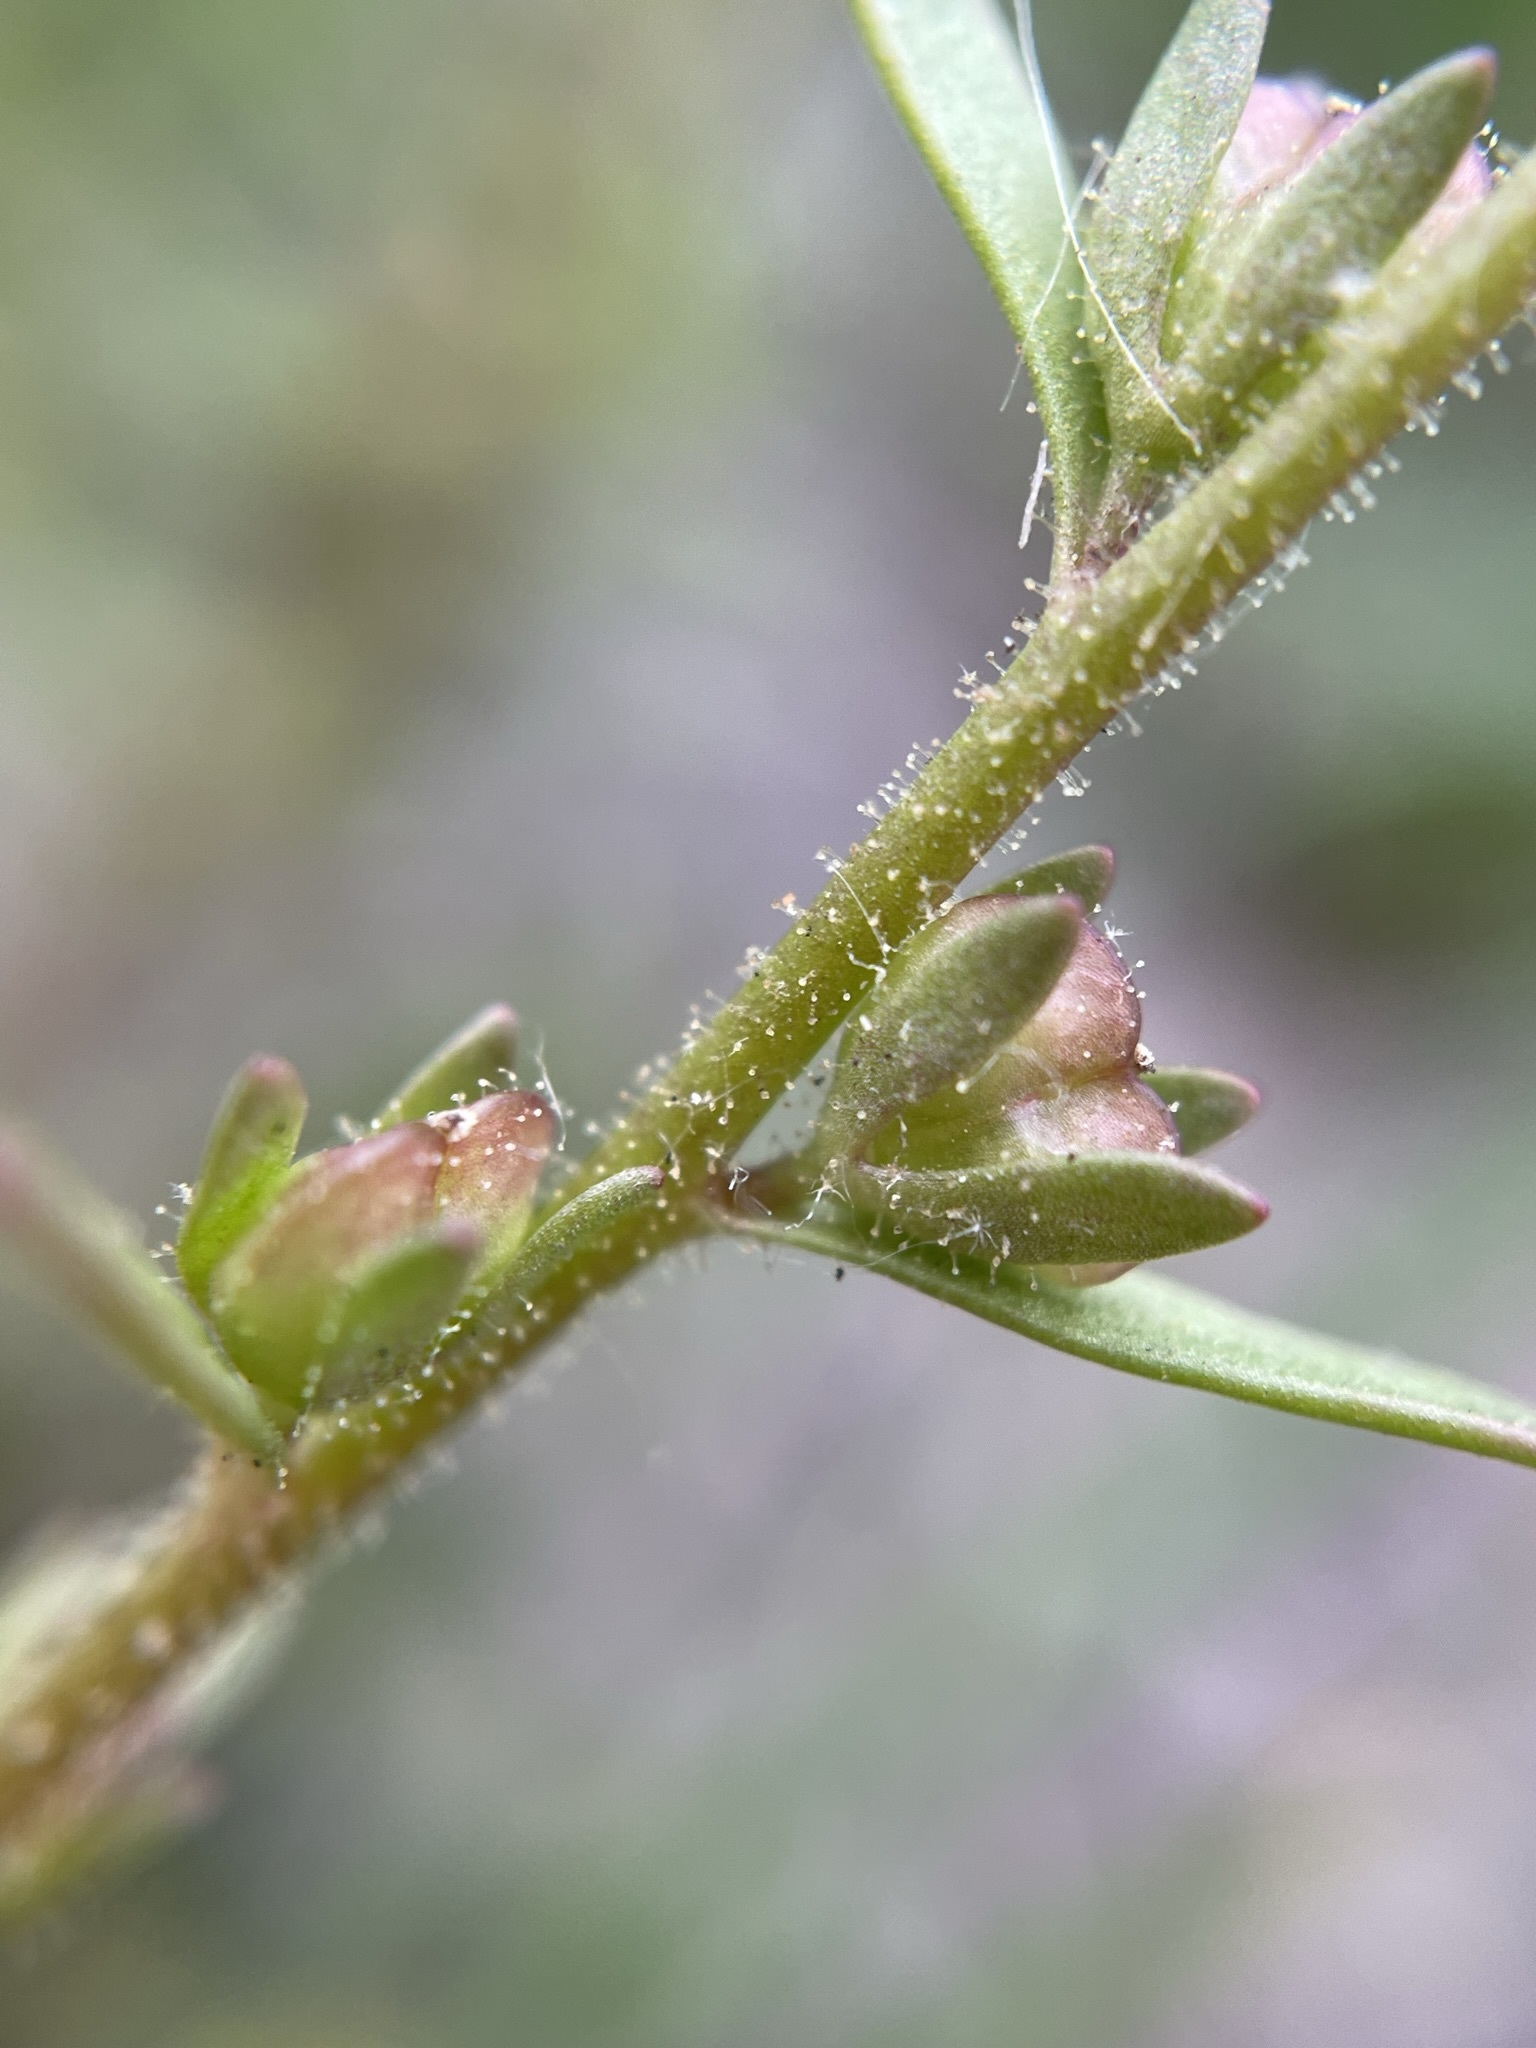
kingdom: Plantae
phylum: Tracheophyta
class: Magnoliopsida
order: Lamiales
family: Plantaginaceae
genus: Veronica
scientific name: Veronica peregrina
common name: Neckweed
